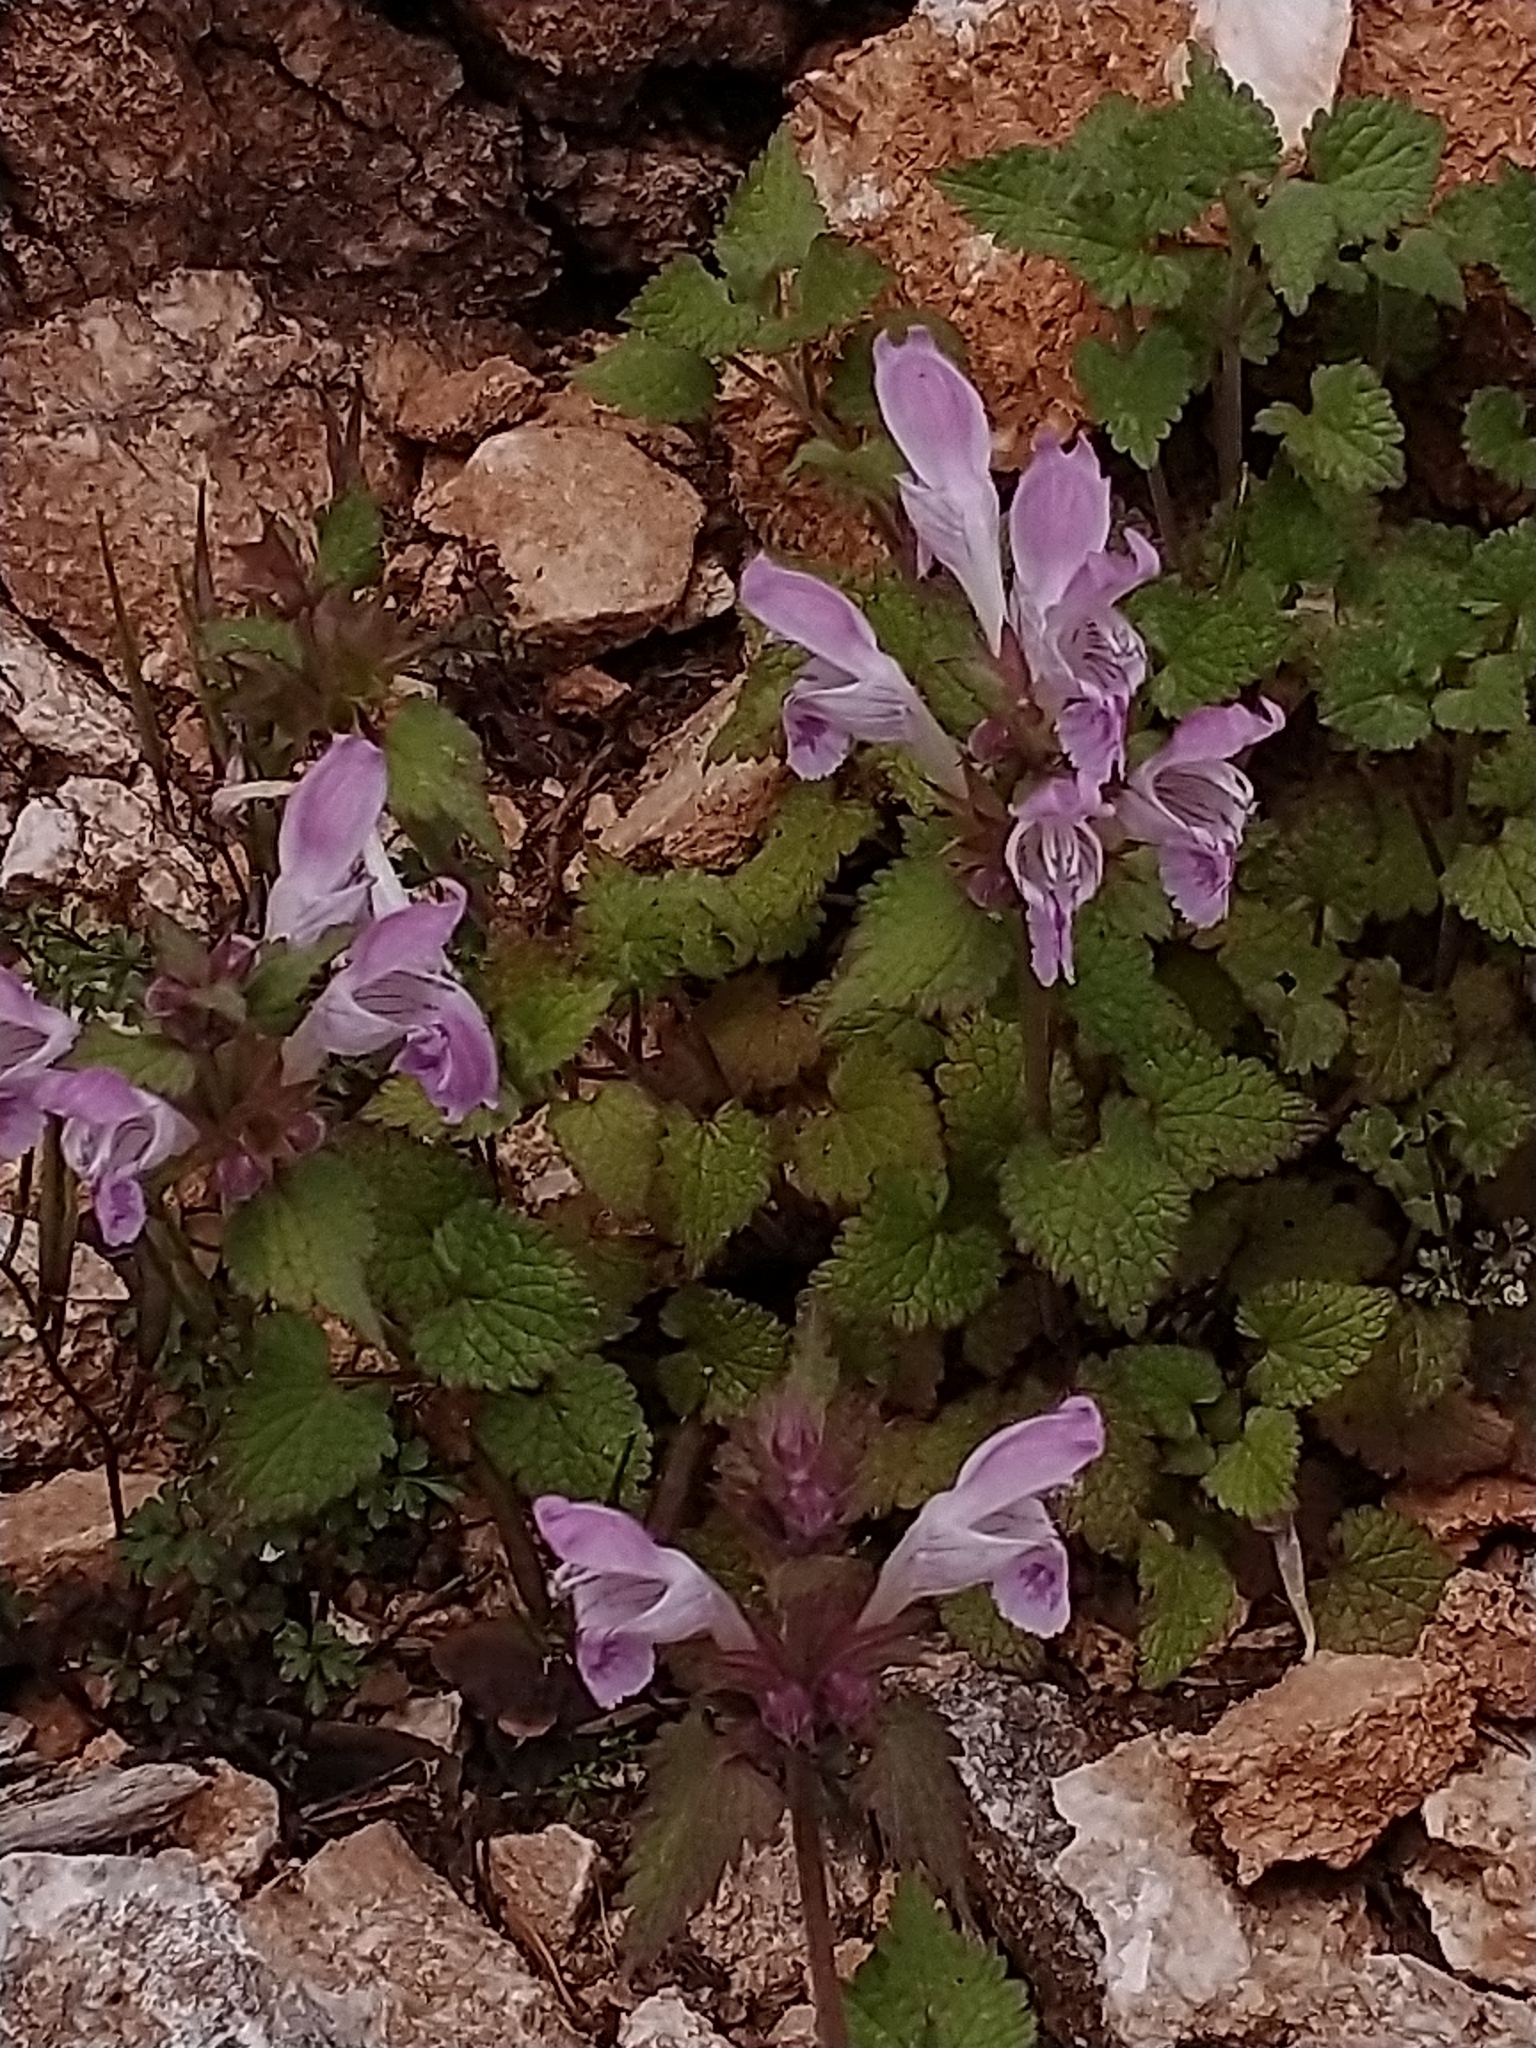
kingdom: Plantae
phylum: Tracheophyta
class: Magnoliopsida
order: Lamiales
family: Lamiaceae
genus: Lamium
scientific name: Lamium garganicum
